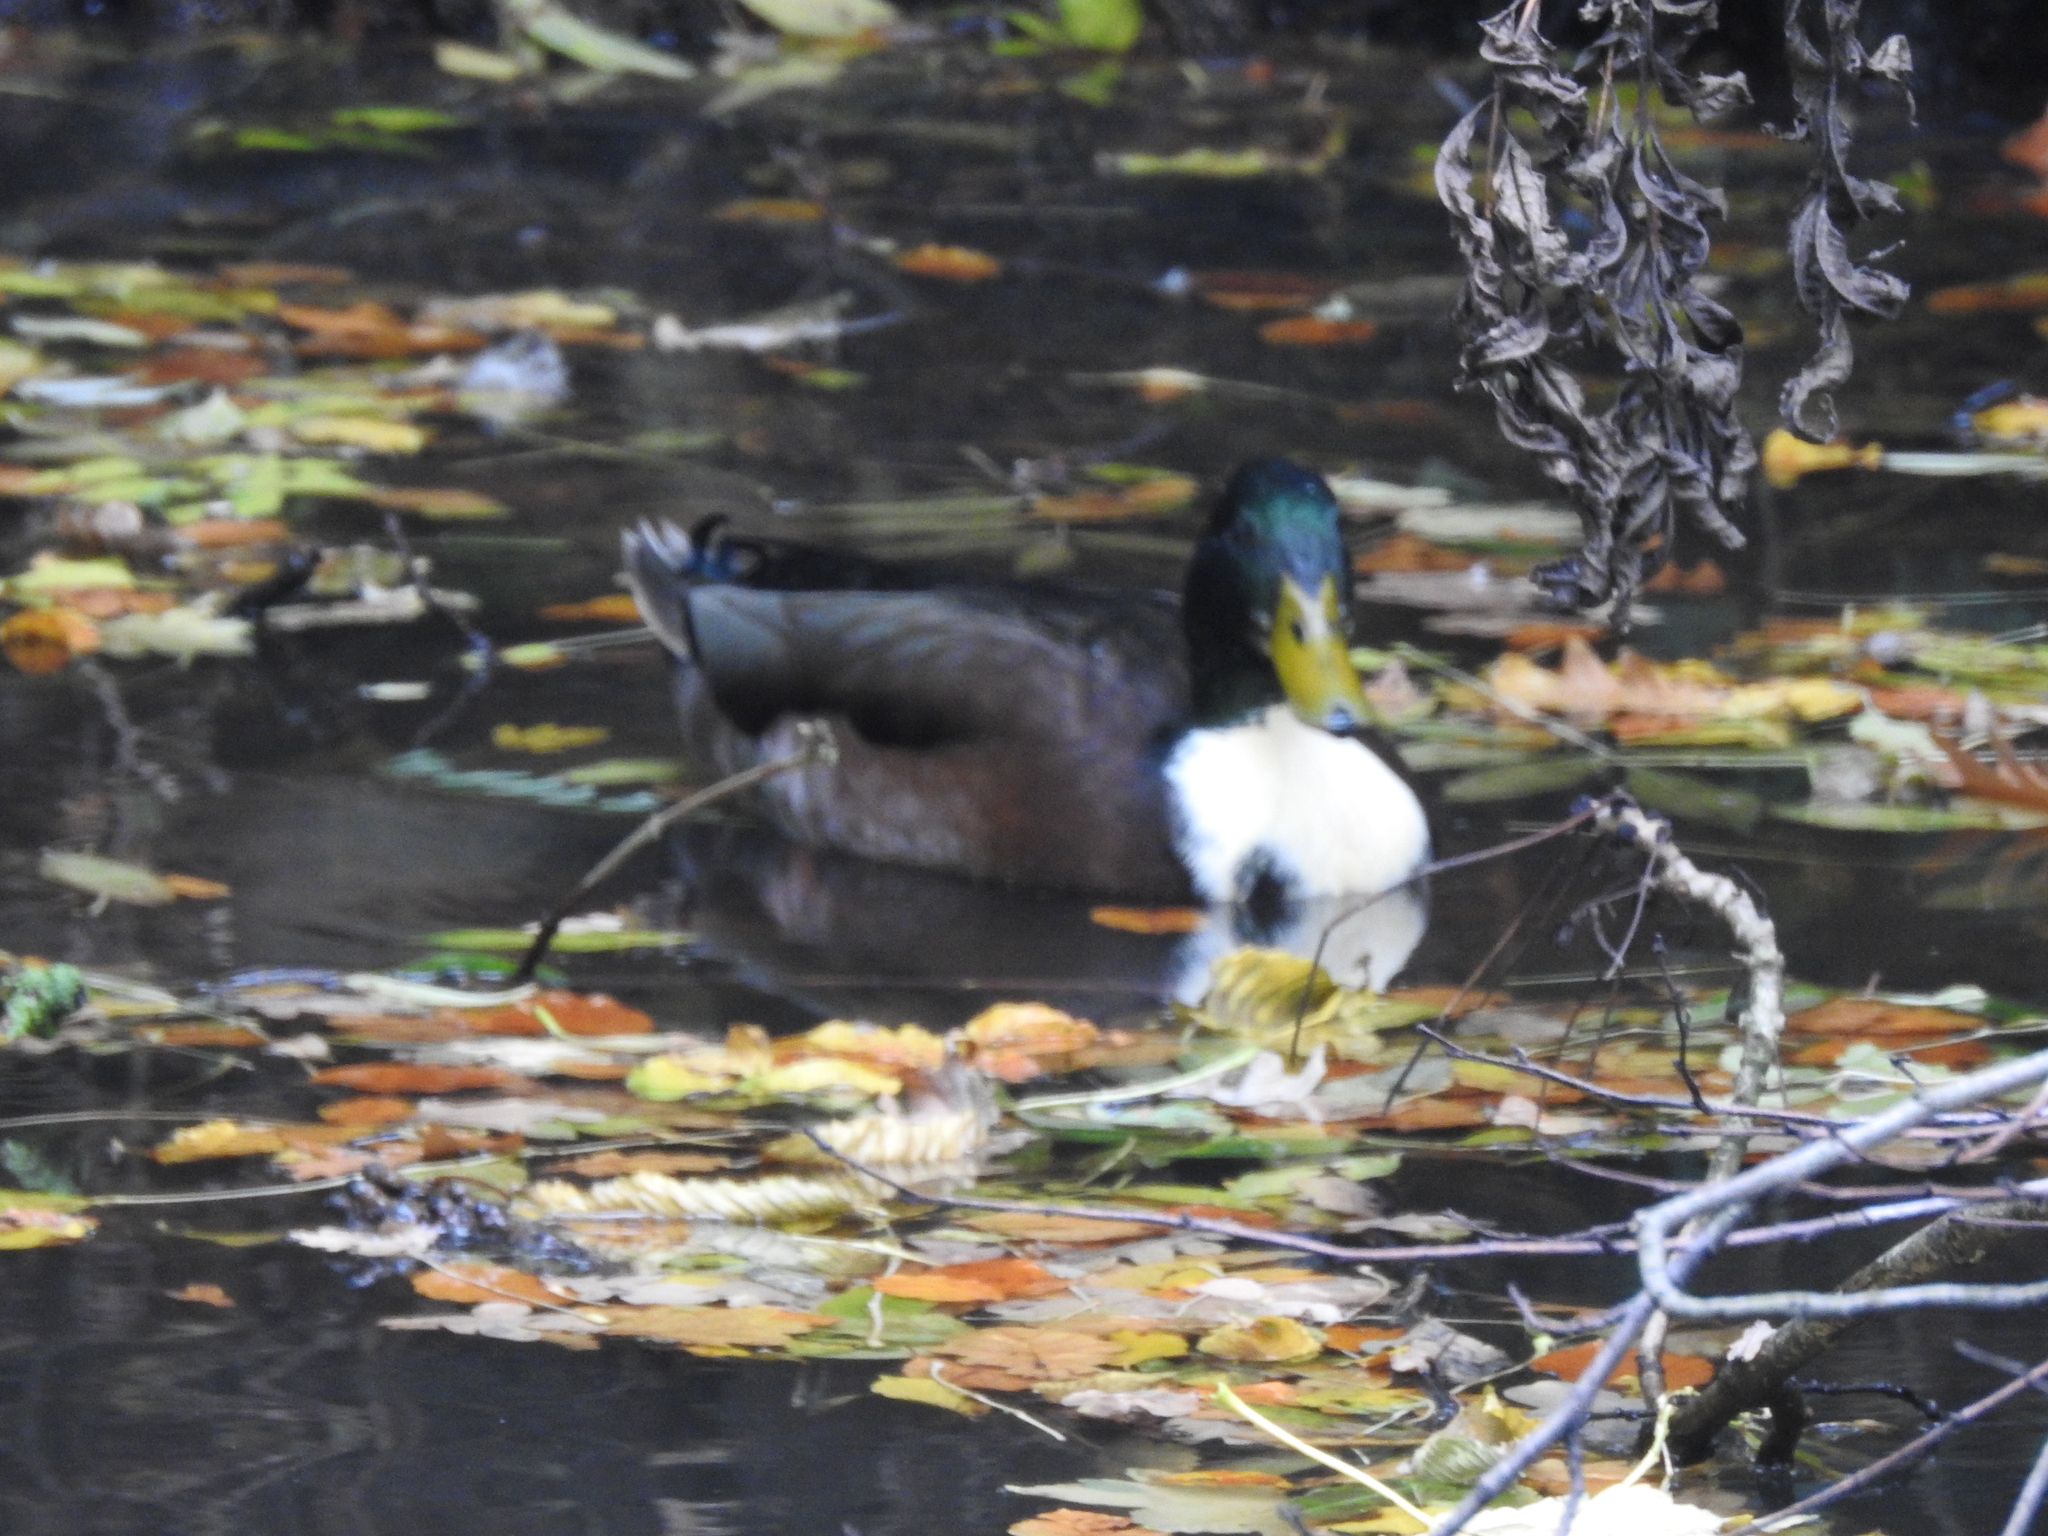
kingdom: Animalia
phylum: Chordata
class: Aves
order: Anseriformes
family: Anatidae
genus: Anas
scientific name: Anas platyrhynchos
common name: Mallard
